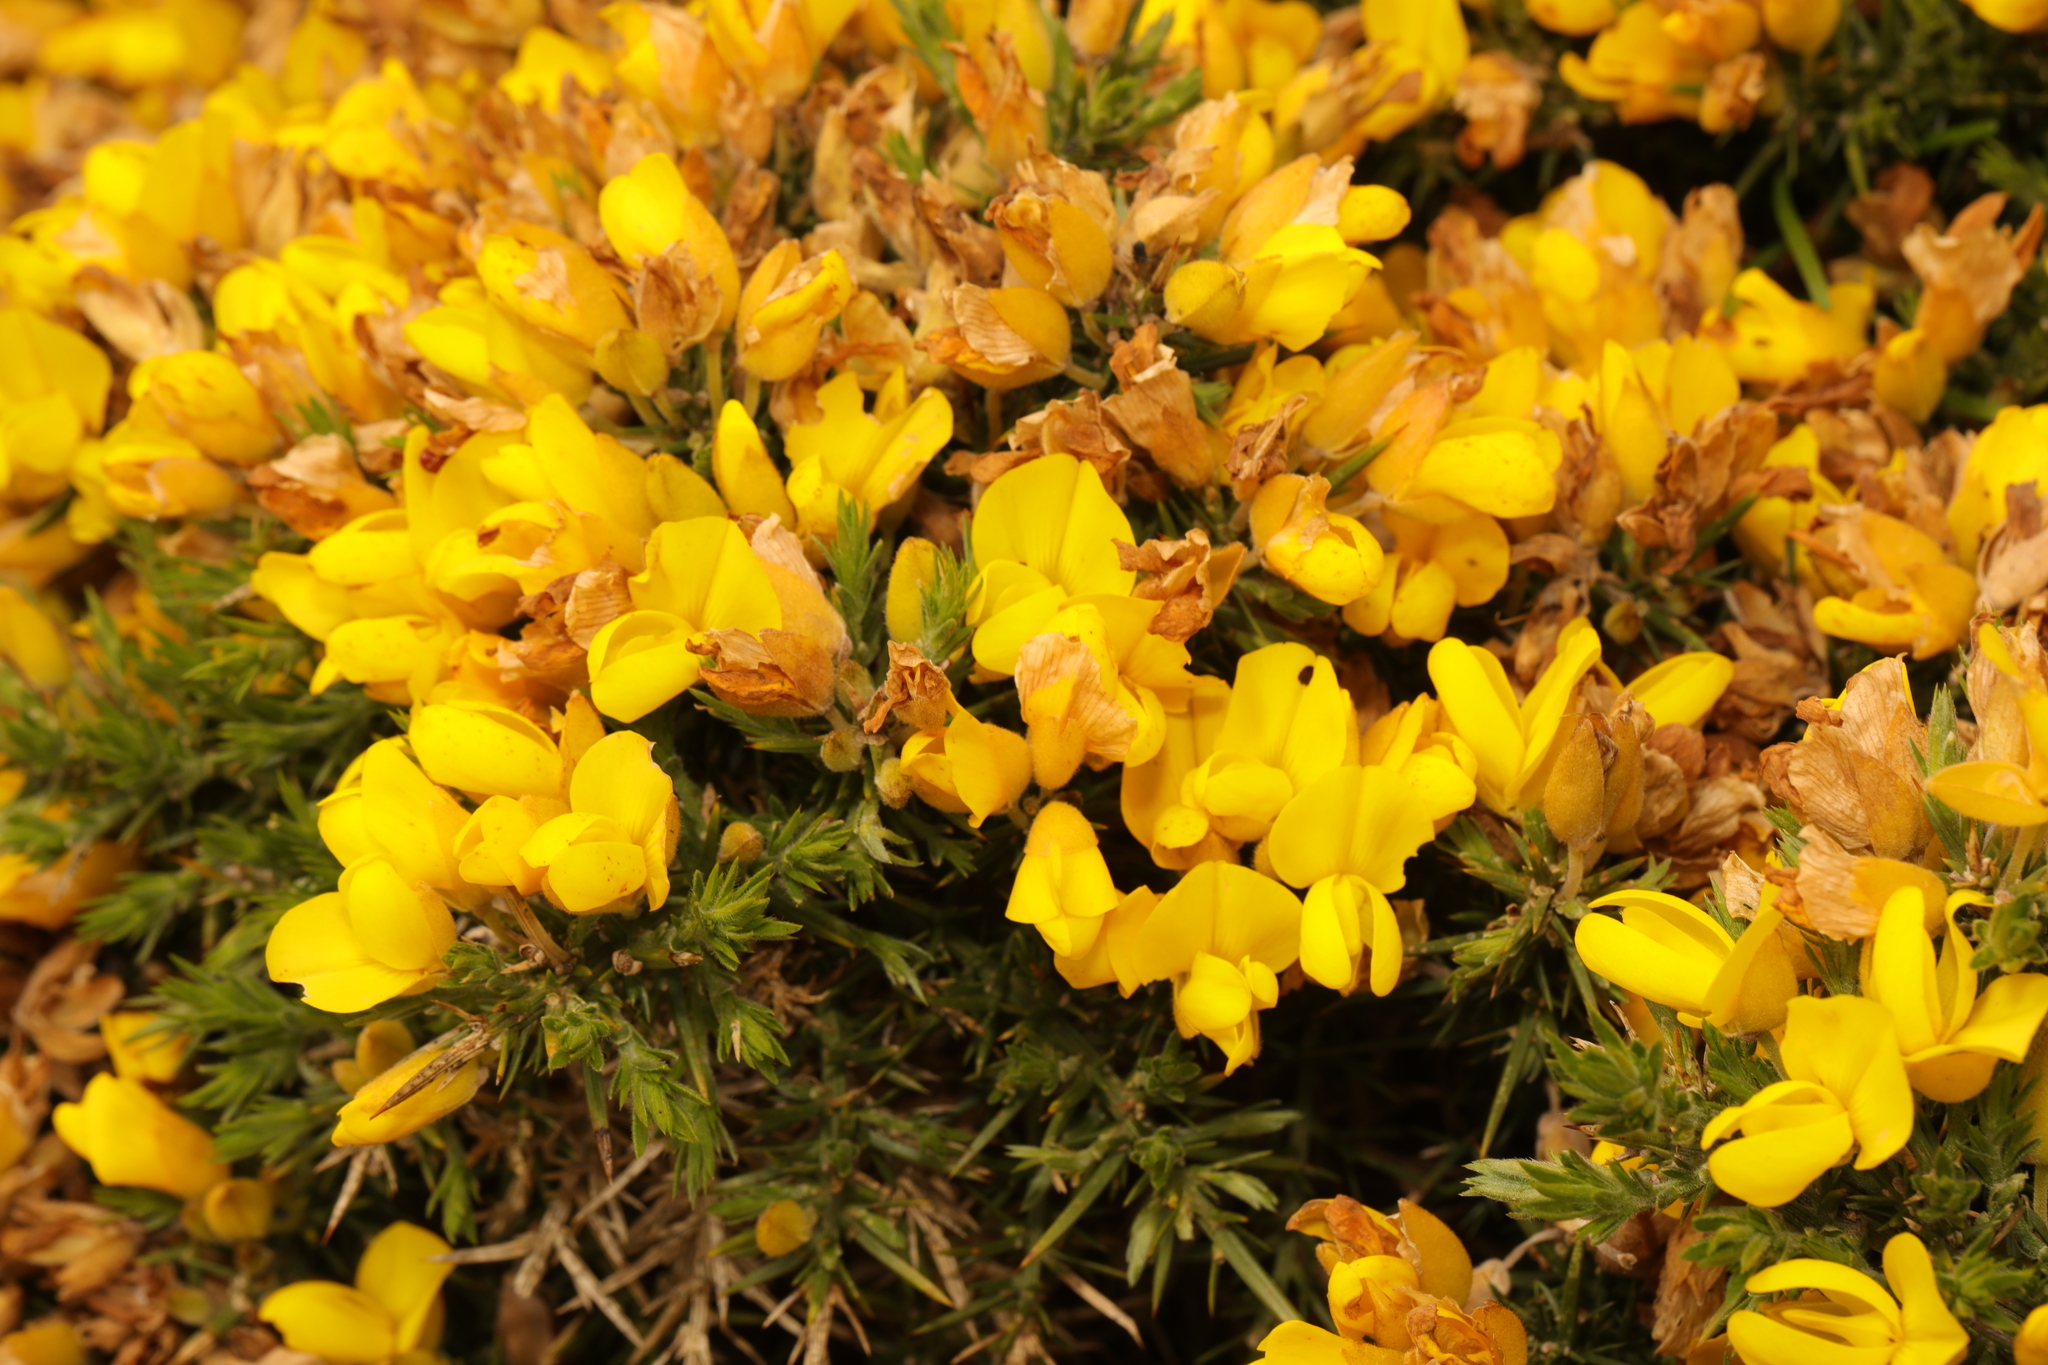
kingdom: Plantae
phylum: Tracheophyta
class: Magnoliopsida
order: Fabales
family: Fabaceae
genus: Ulex
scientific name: Ulex europaeus
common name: Common gorse
